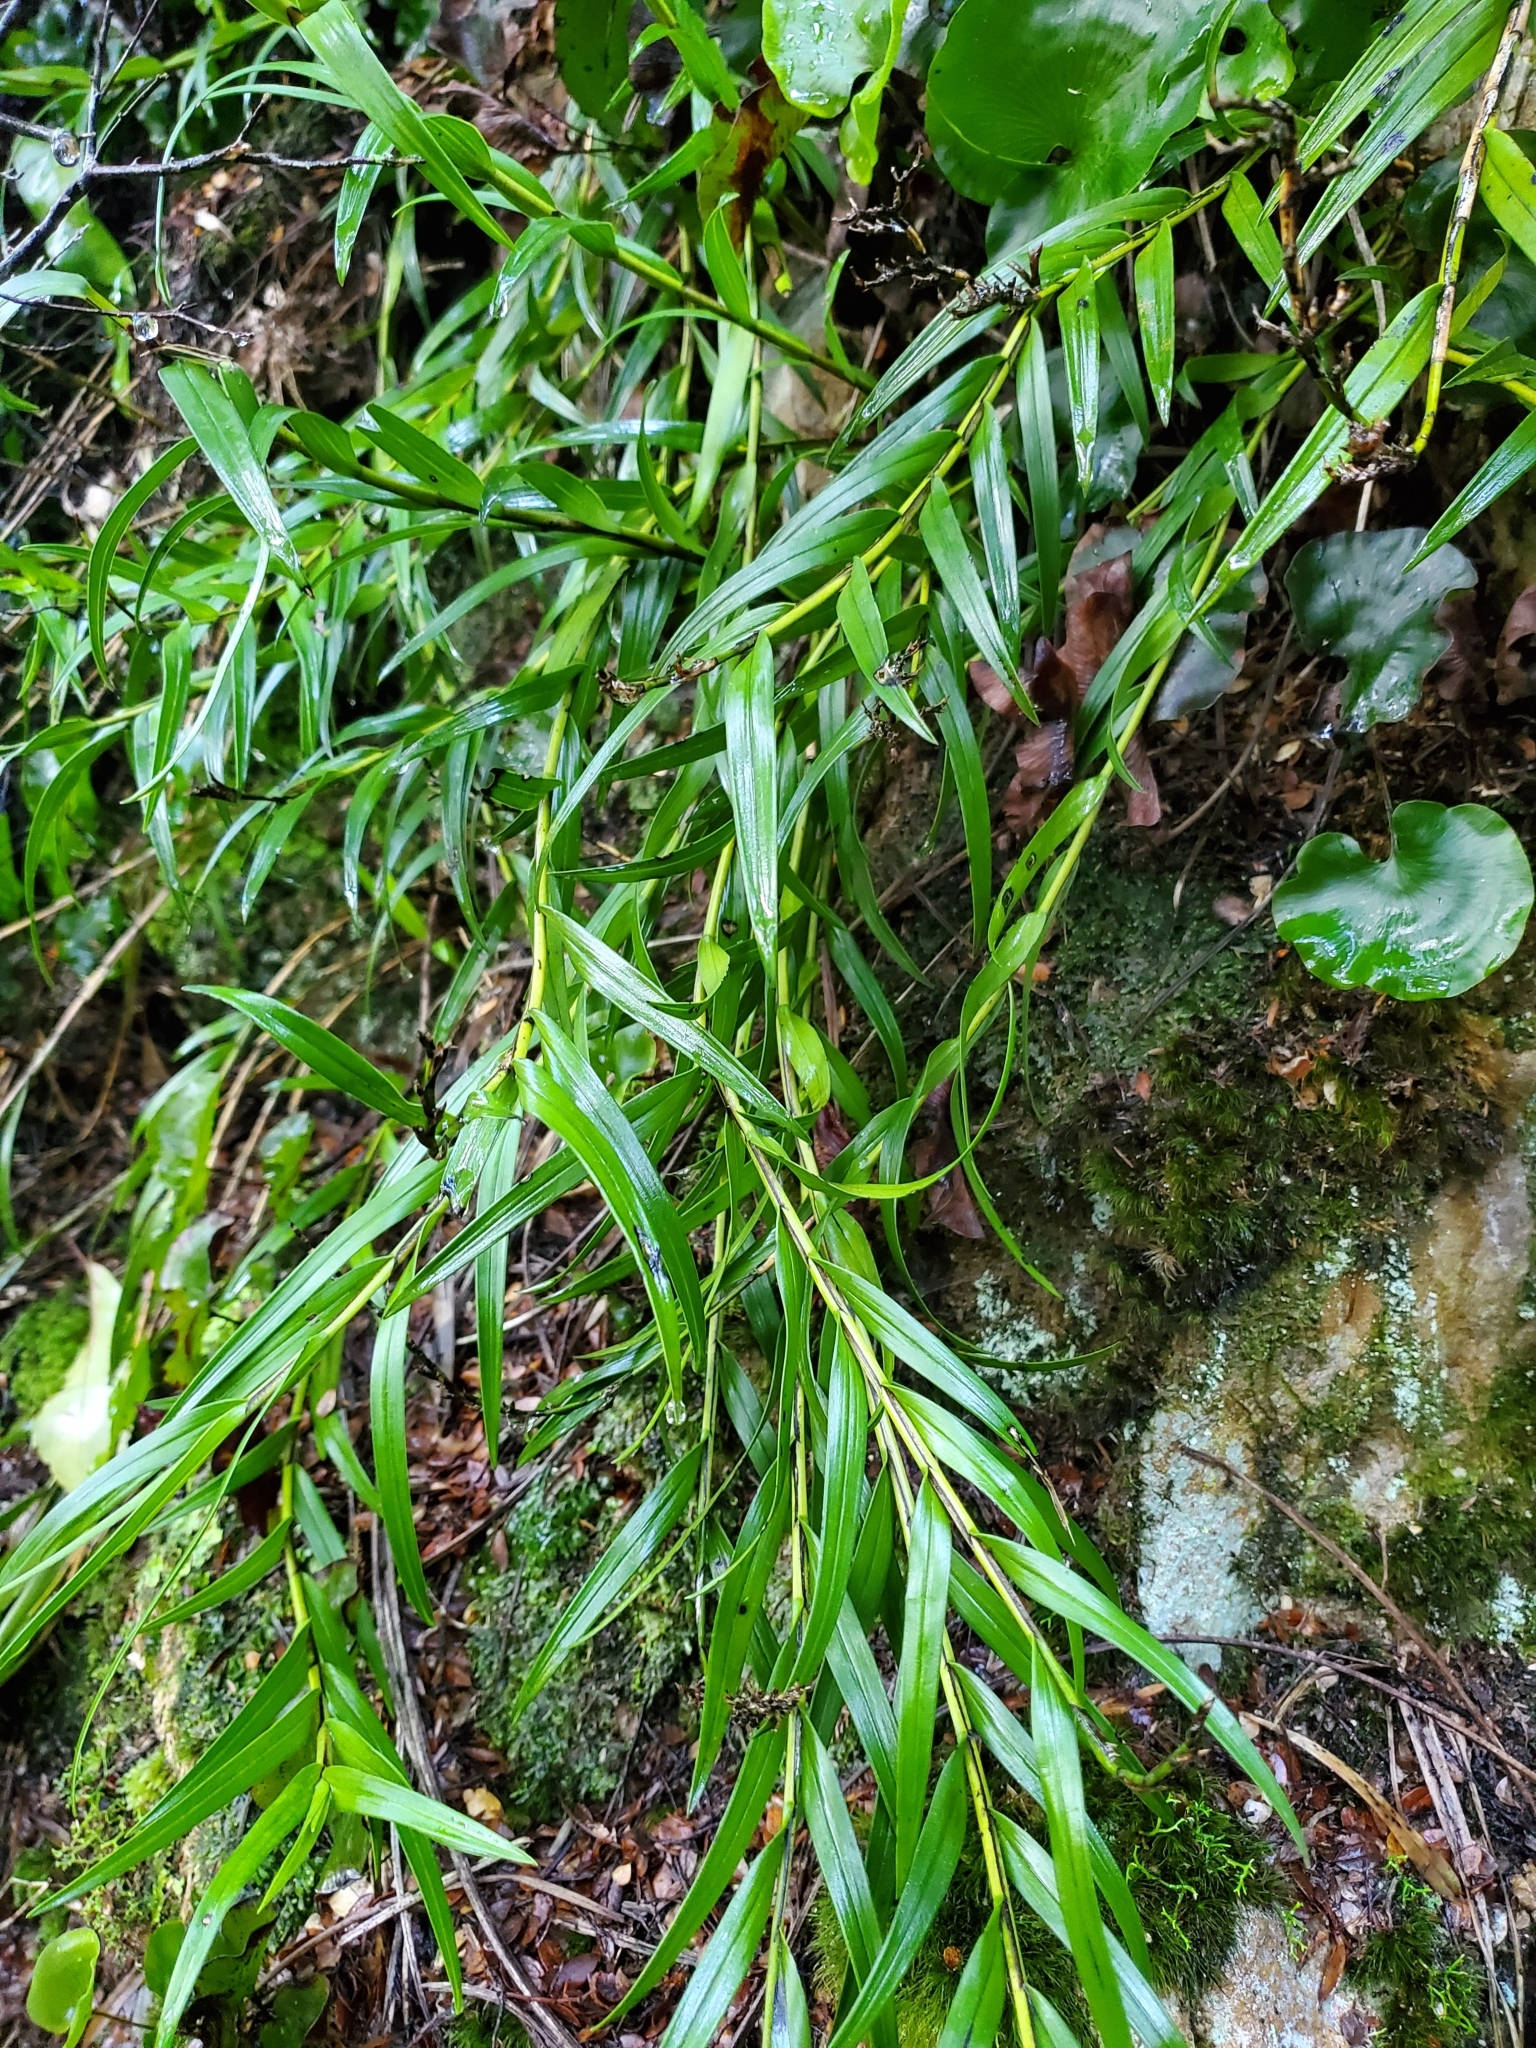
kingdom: Plantae
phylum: Tracheophyta
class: Liliopsida
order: Asparagales
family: Orchidaceae
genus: Earina
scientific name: Earina autumnalis
